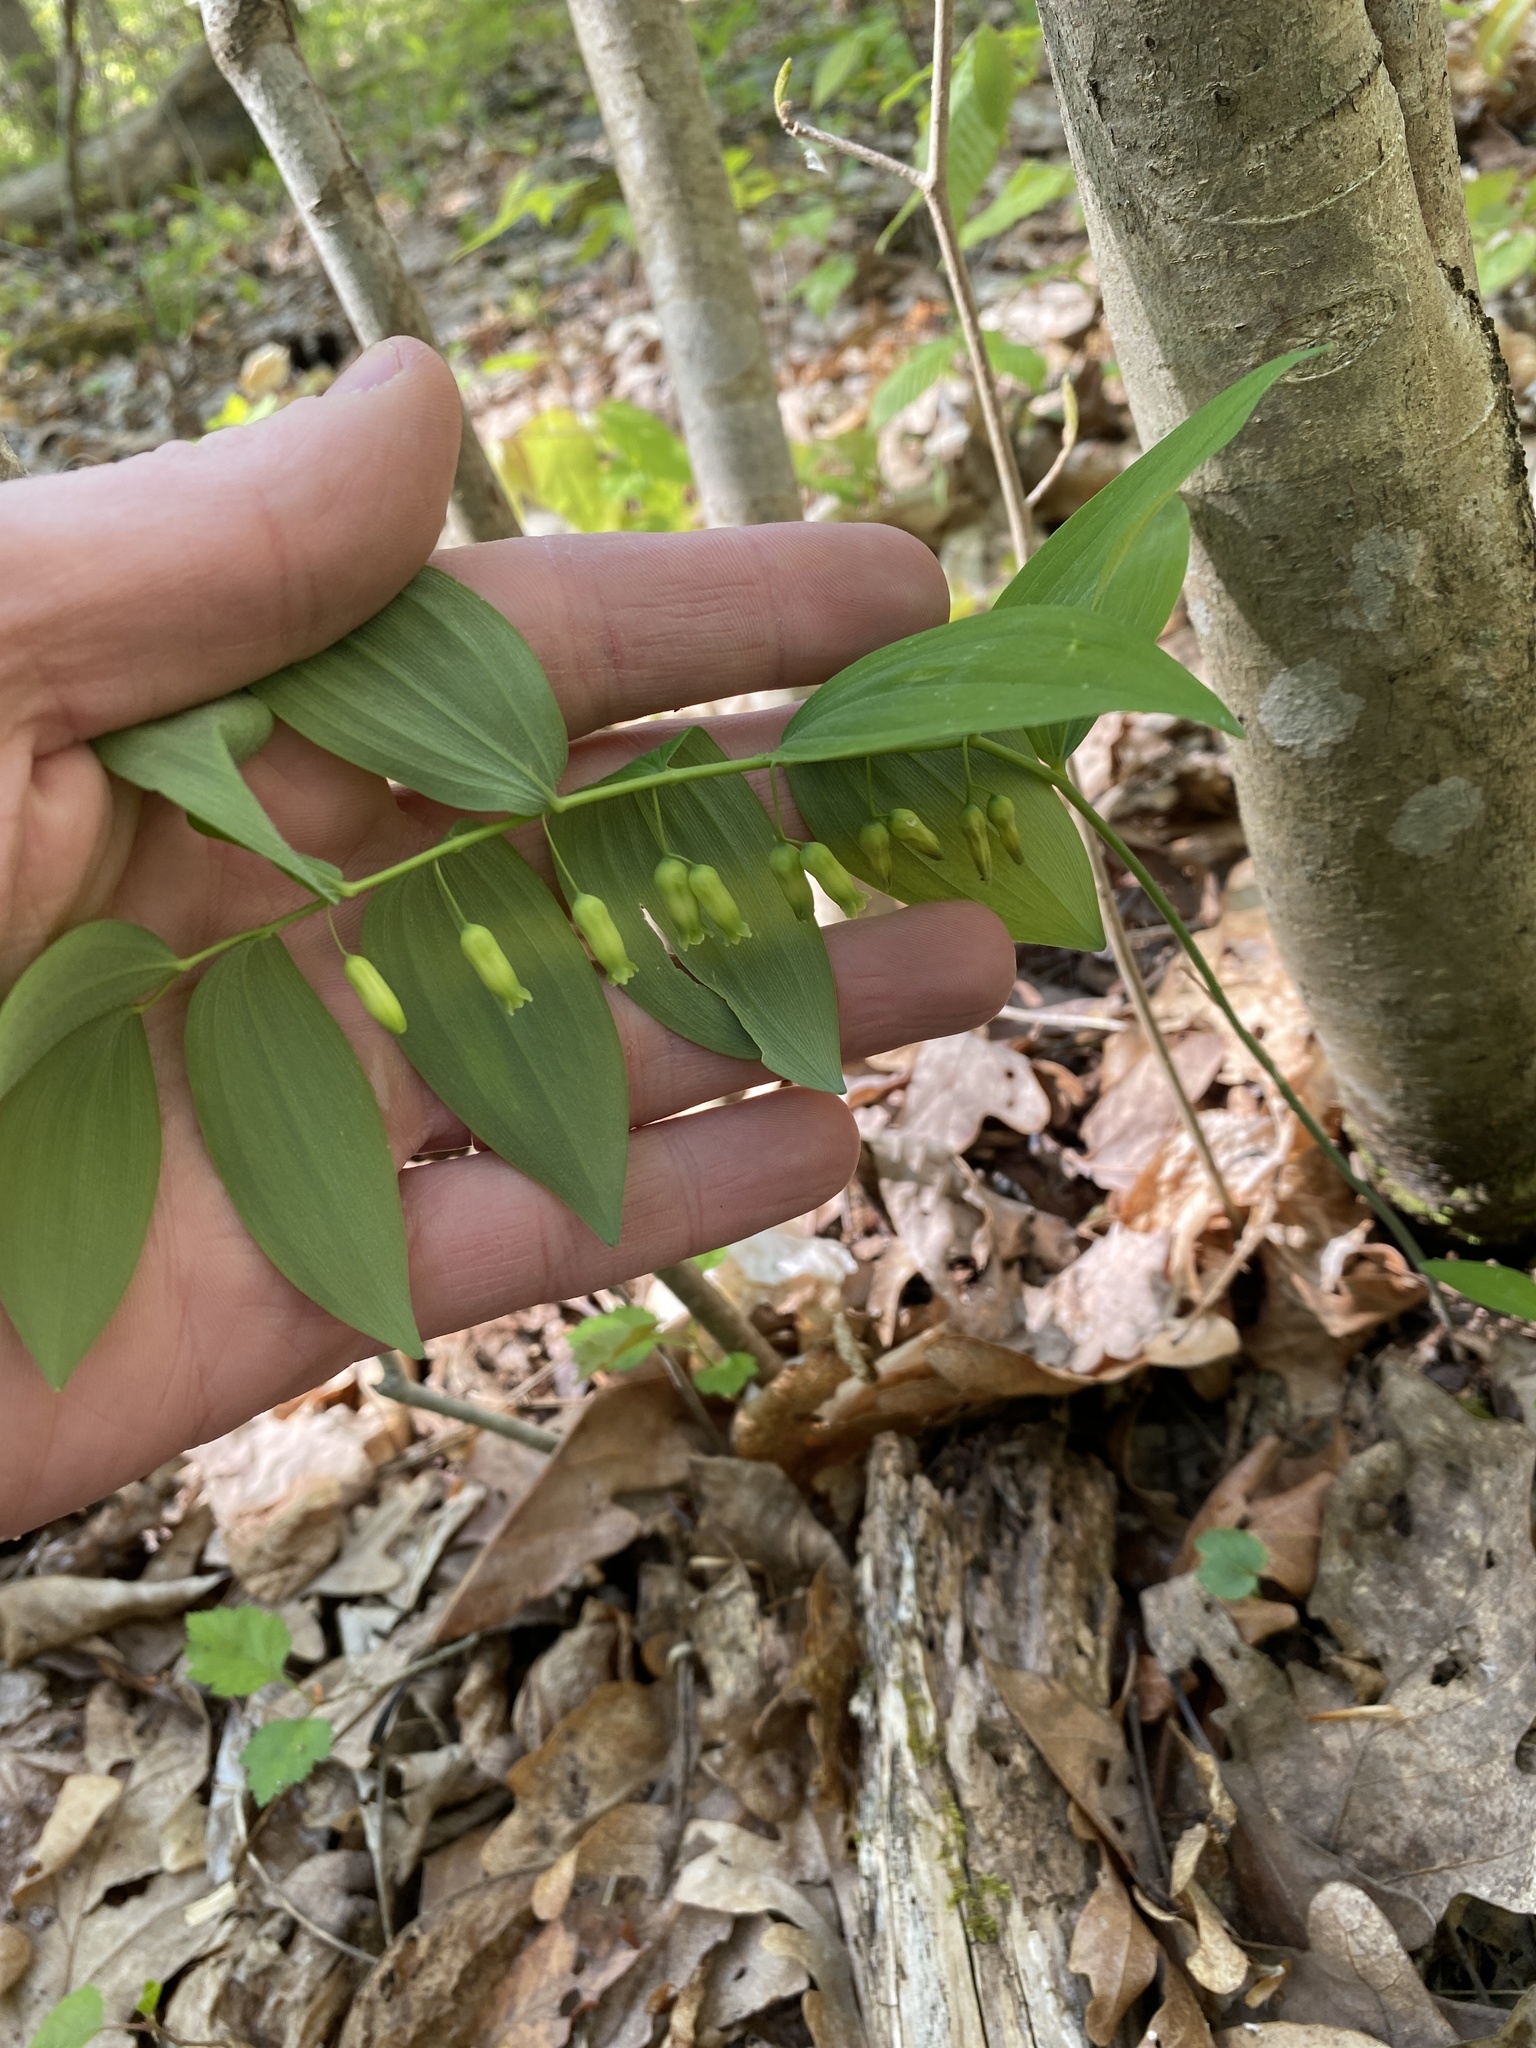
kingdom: Plantae
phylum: Tracheophyta
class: Liliopsida
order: Asparagales
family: Asparagaceae
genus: Polygonatum
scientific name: Polygonatum pubescens
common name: Downy solomon's seal
